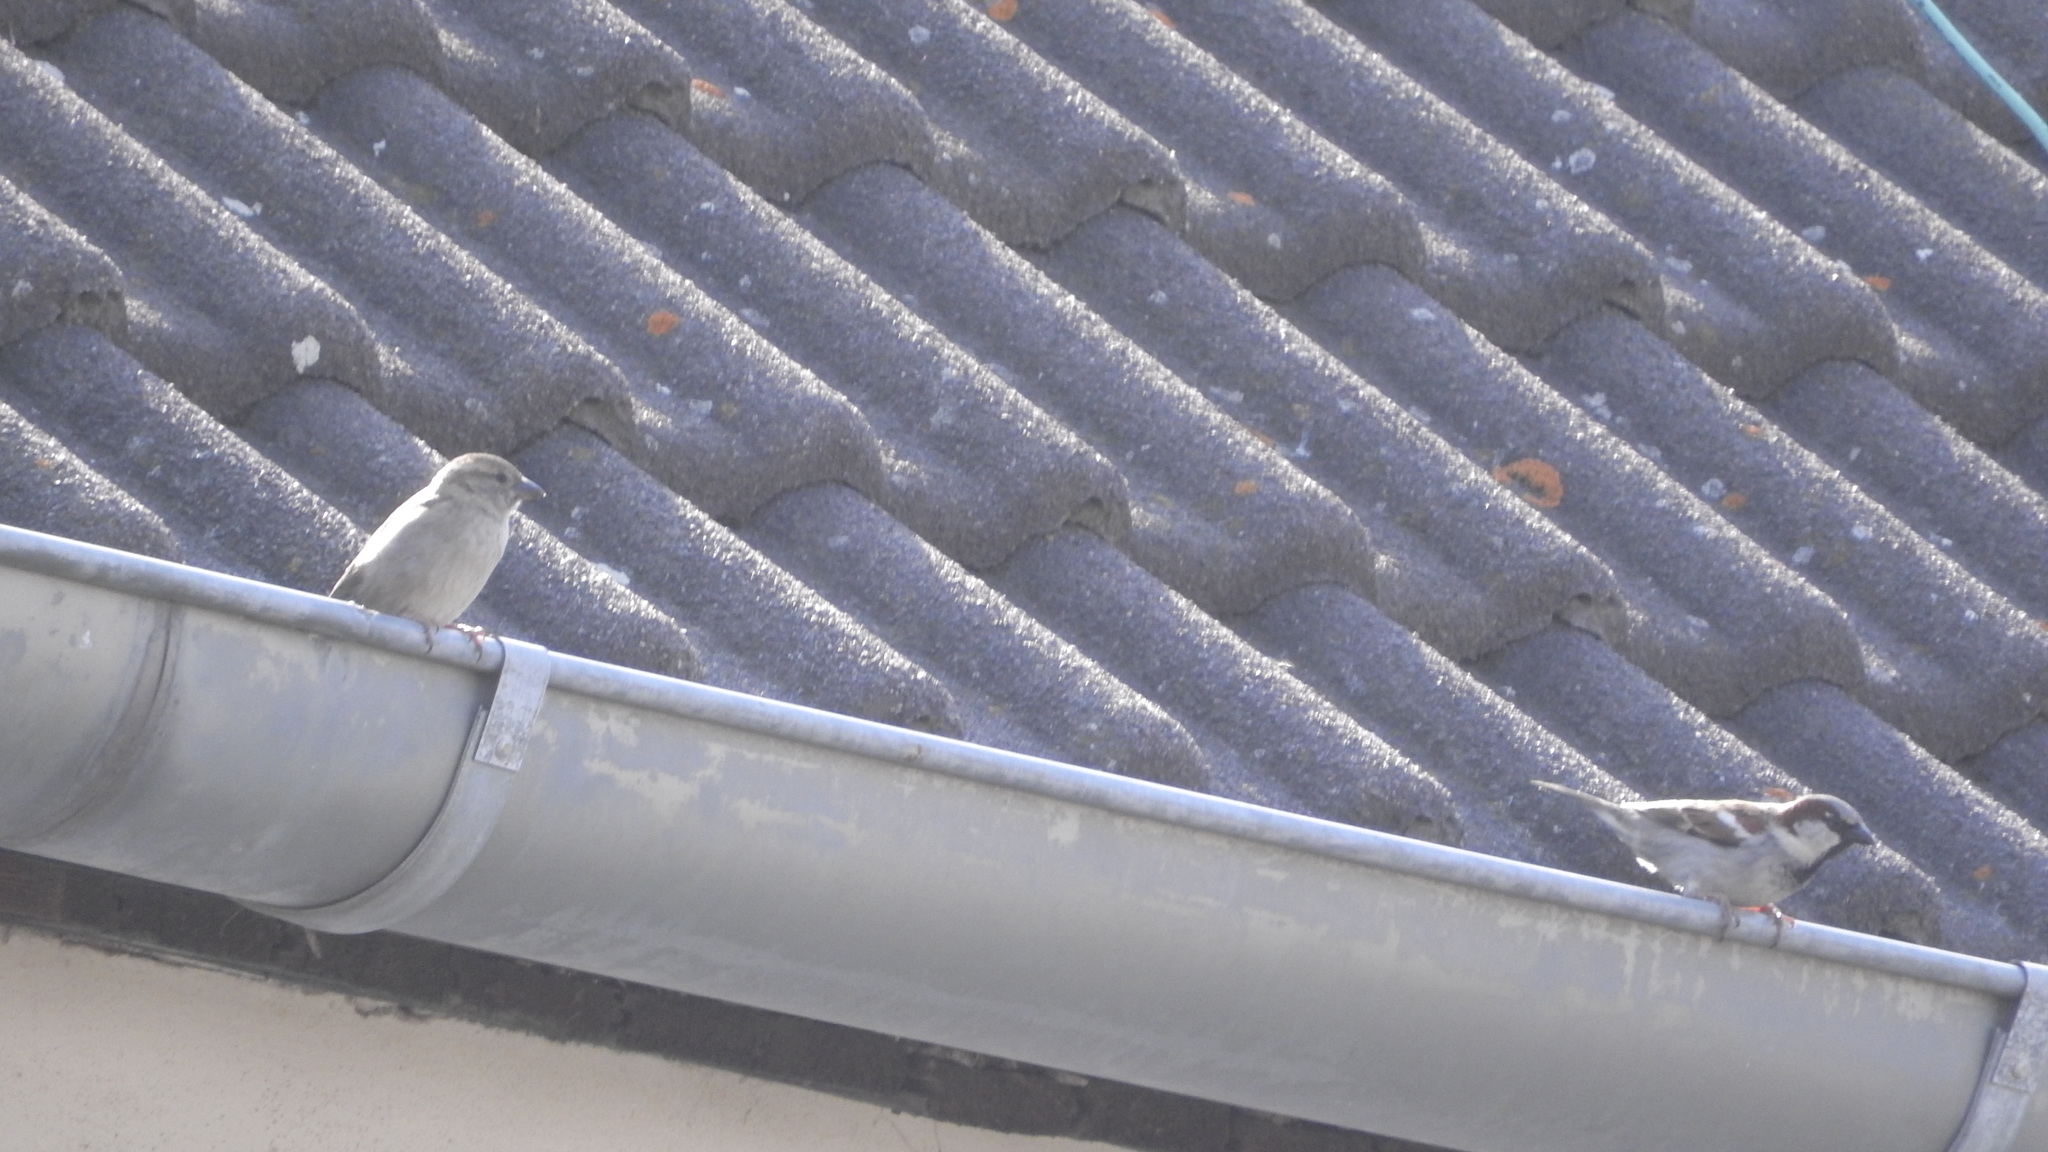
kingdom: Animalia
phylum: Chordata
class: Aves
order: Passeriformes
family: Passeridae
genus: Passer
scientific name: Passer domesticus
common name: House sparrow
